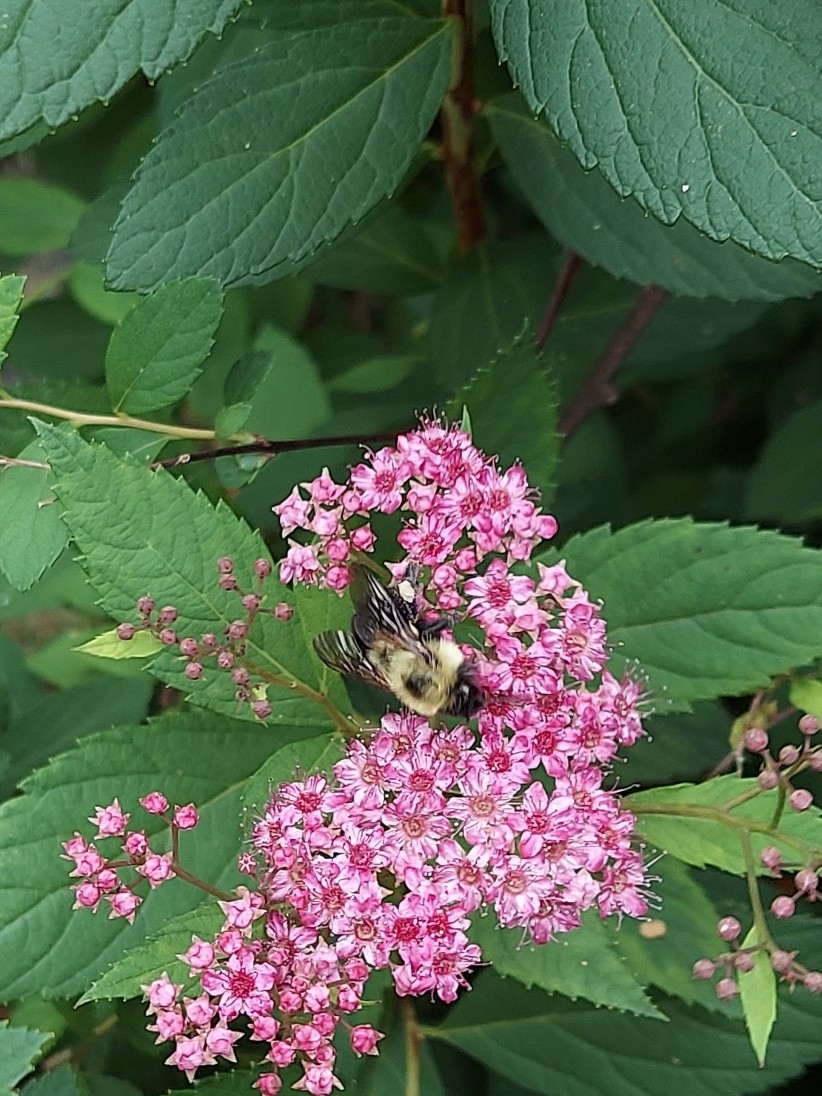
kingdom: Animalia
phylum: Arthropoda
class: Insecta
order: Hymenoptera
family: Apidae
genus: Bombus
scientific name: Bombus bimaculatus
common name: Two-spotted bumble bee
